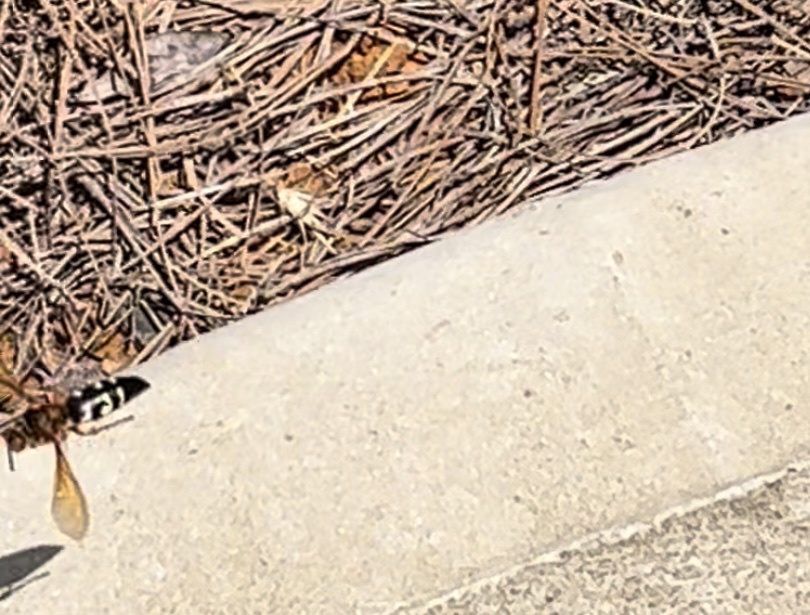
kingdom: Animalia
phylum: Arthropoda
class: Insecta
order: Hymenoptera
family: Crabronidae
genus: Sphecius
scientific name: Sphecius speciosus
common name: Cicada killer
